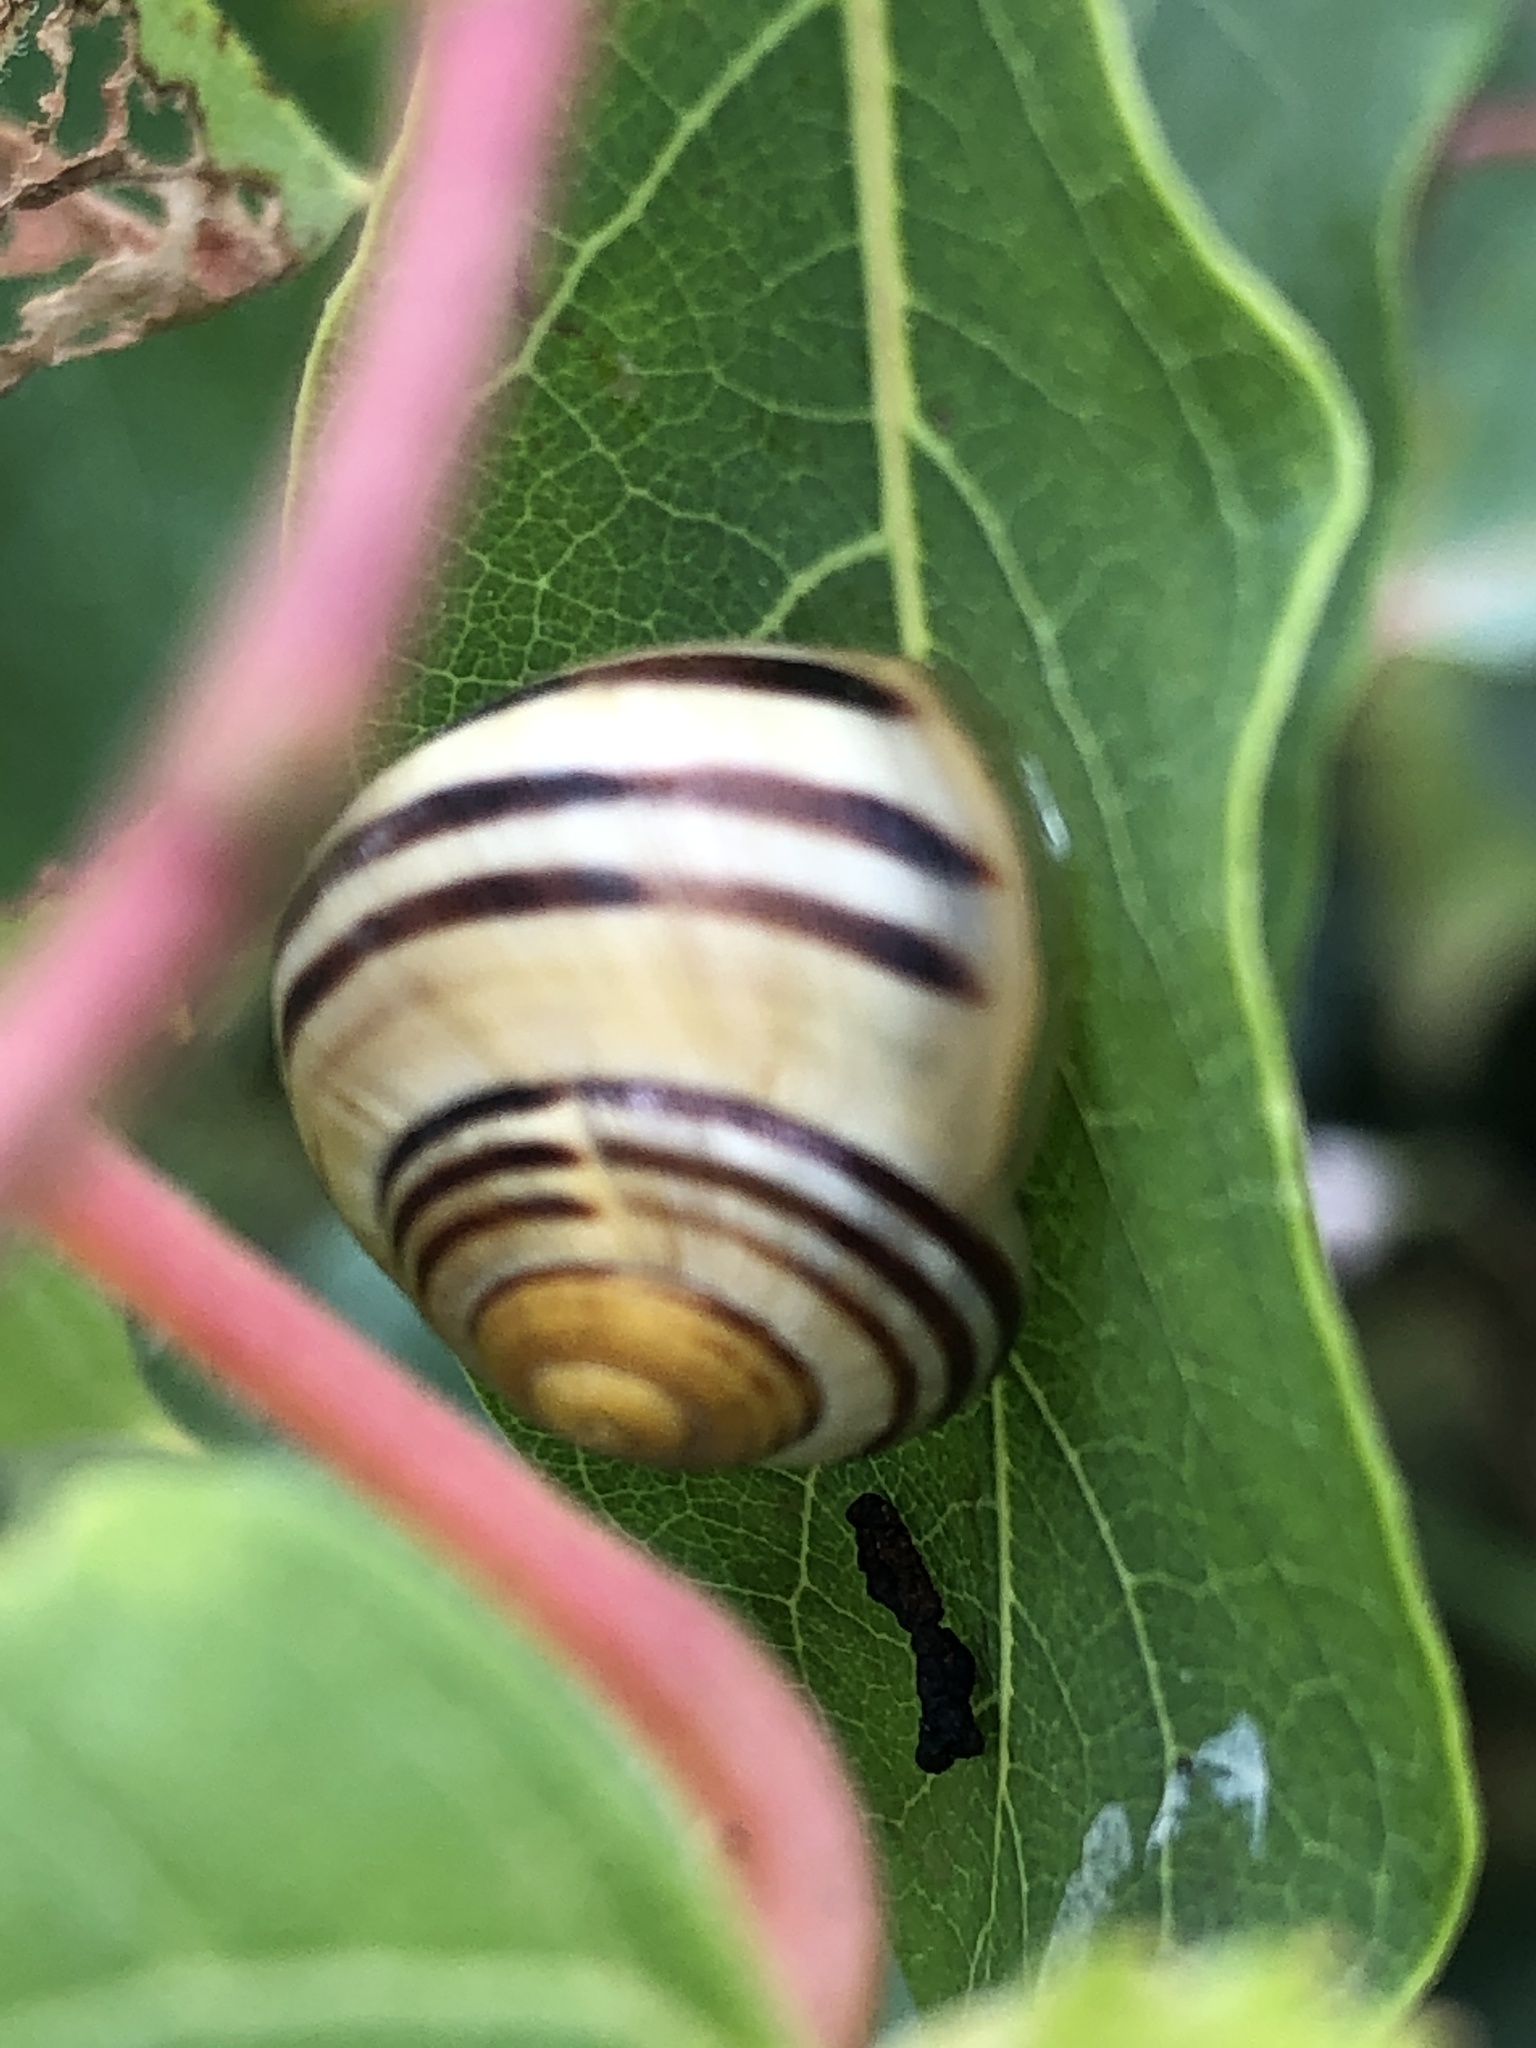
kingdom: Animalia
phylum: Mollusca
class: Gastropoda
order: Stylommatophora
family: Helicidae
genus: Cepaea
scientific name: Cepaea
